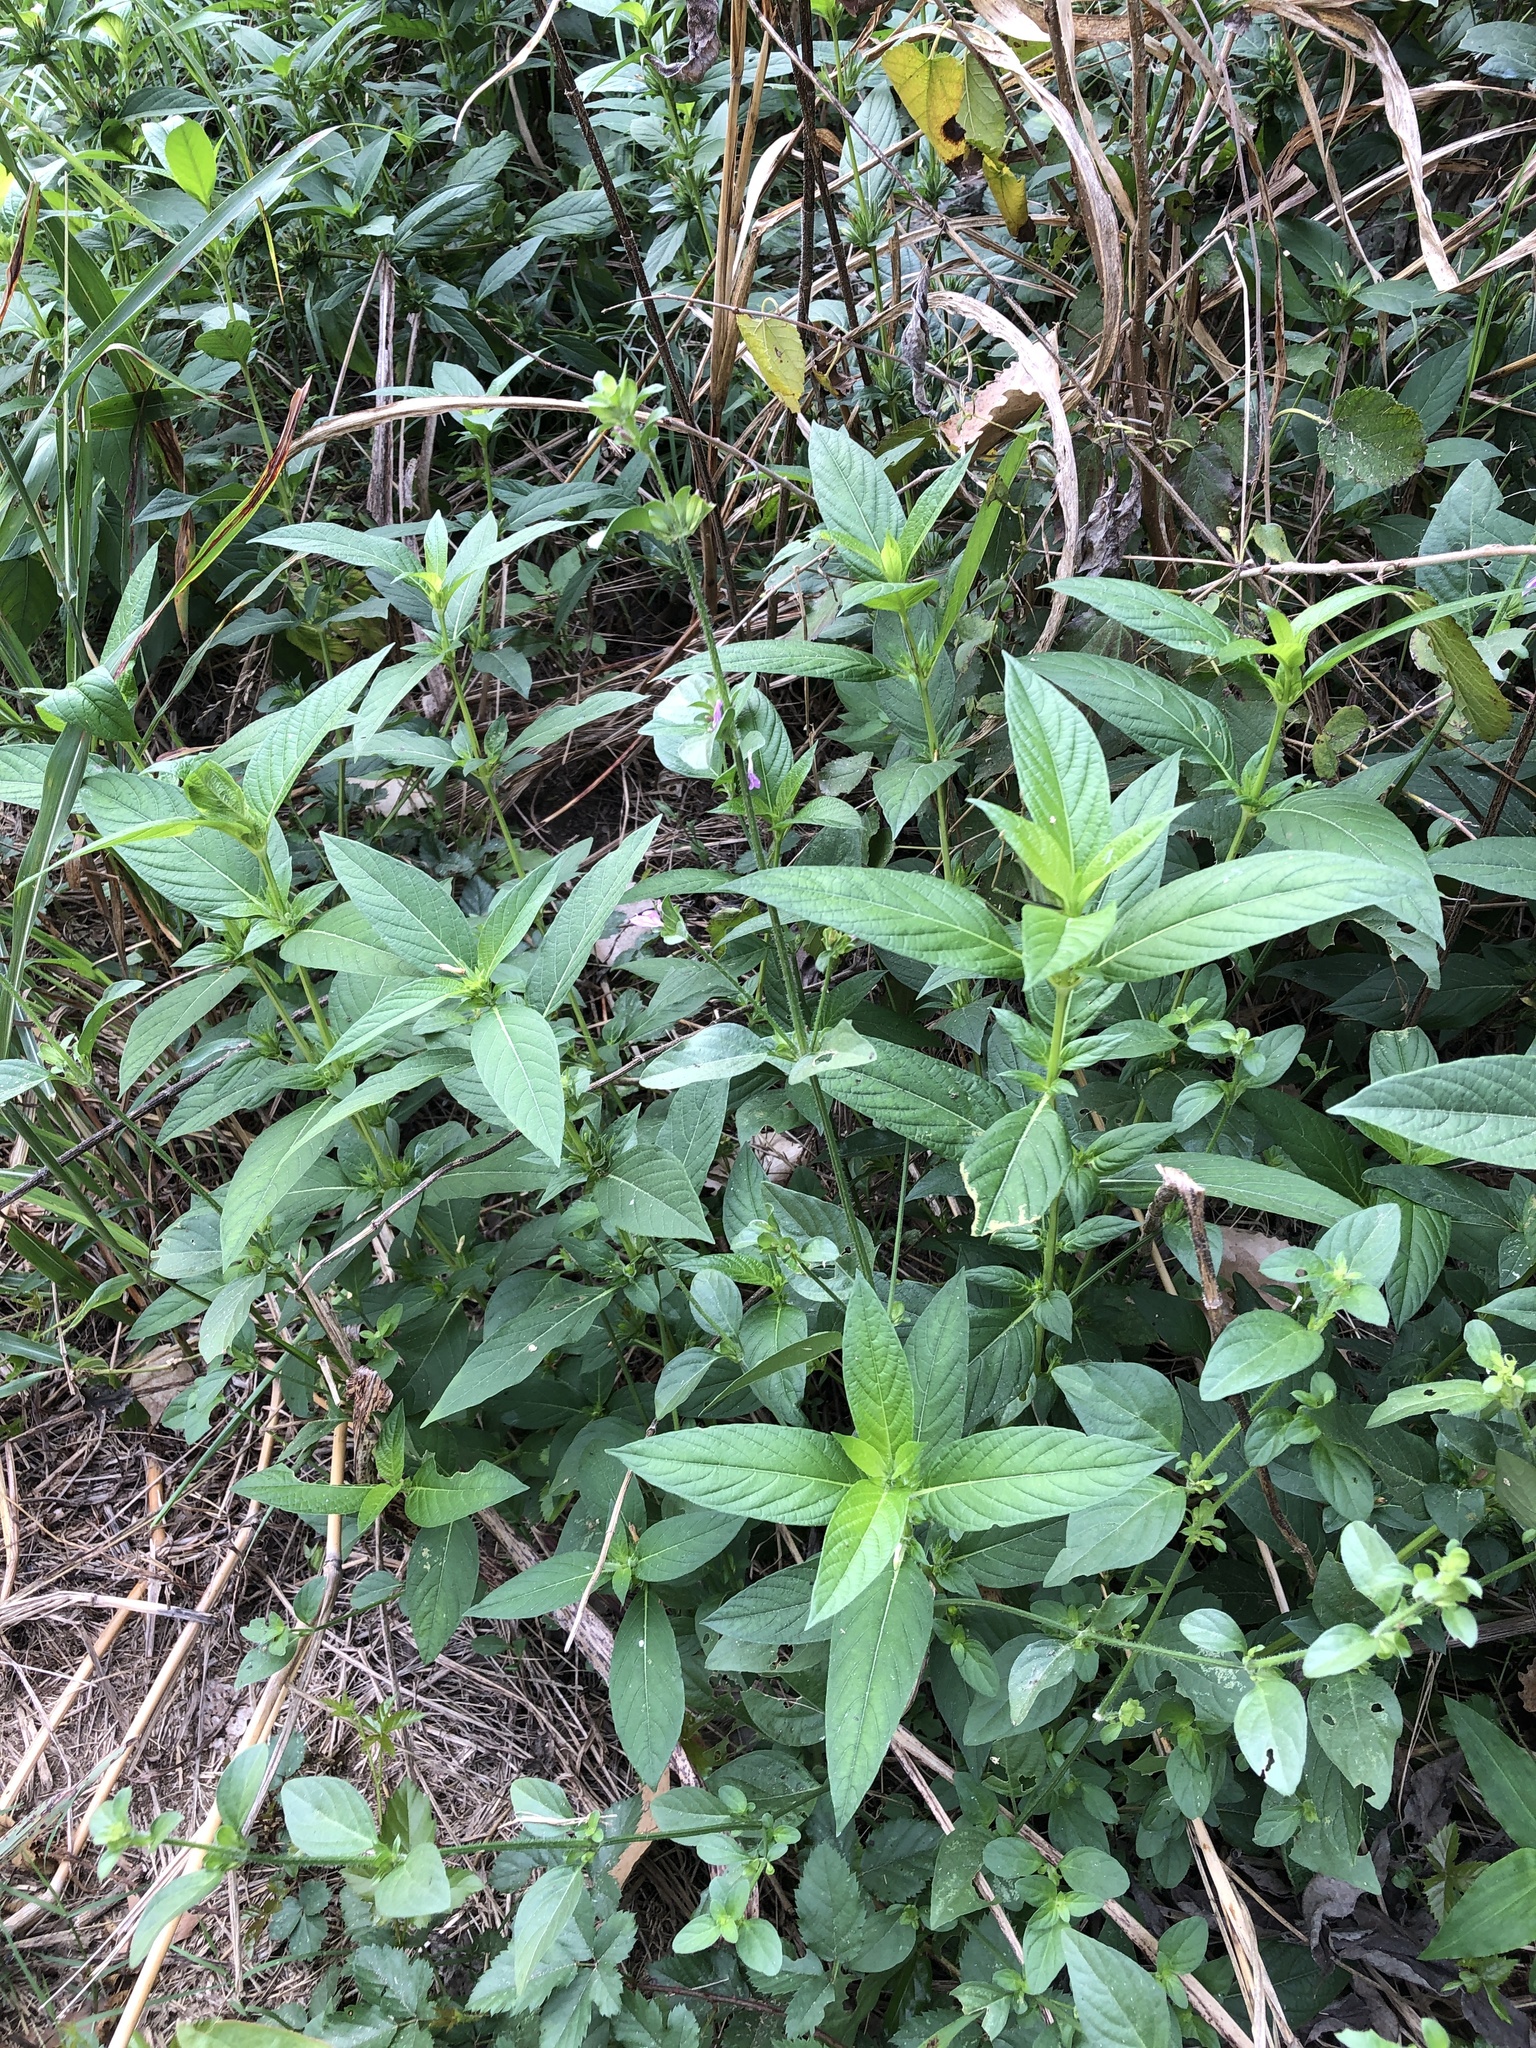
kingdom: Plantae
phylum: Tracheophyta
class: Magnoliopsida
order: Lamiales
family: Acanthaceae
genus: Dicliptera
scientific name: Dicliptera brachiata
